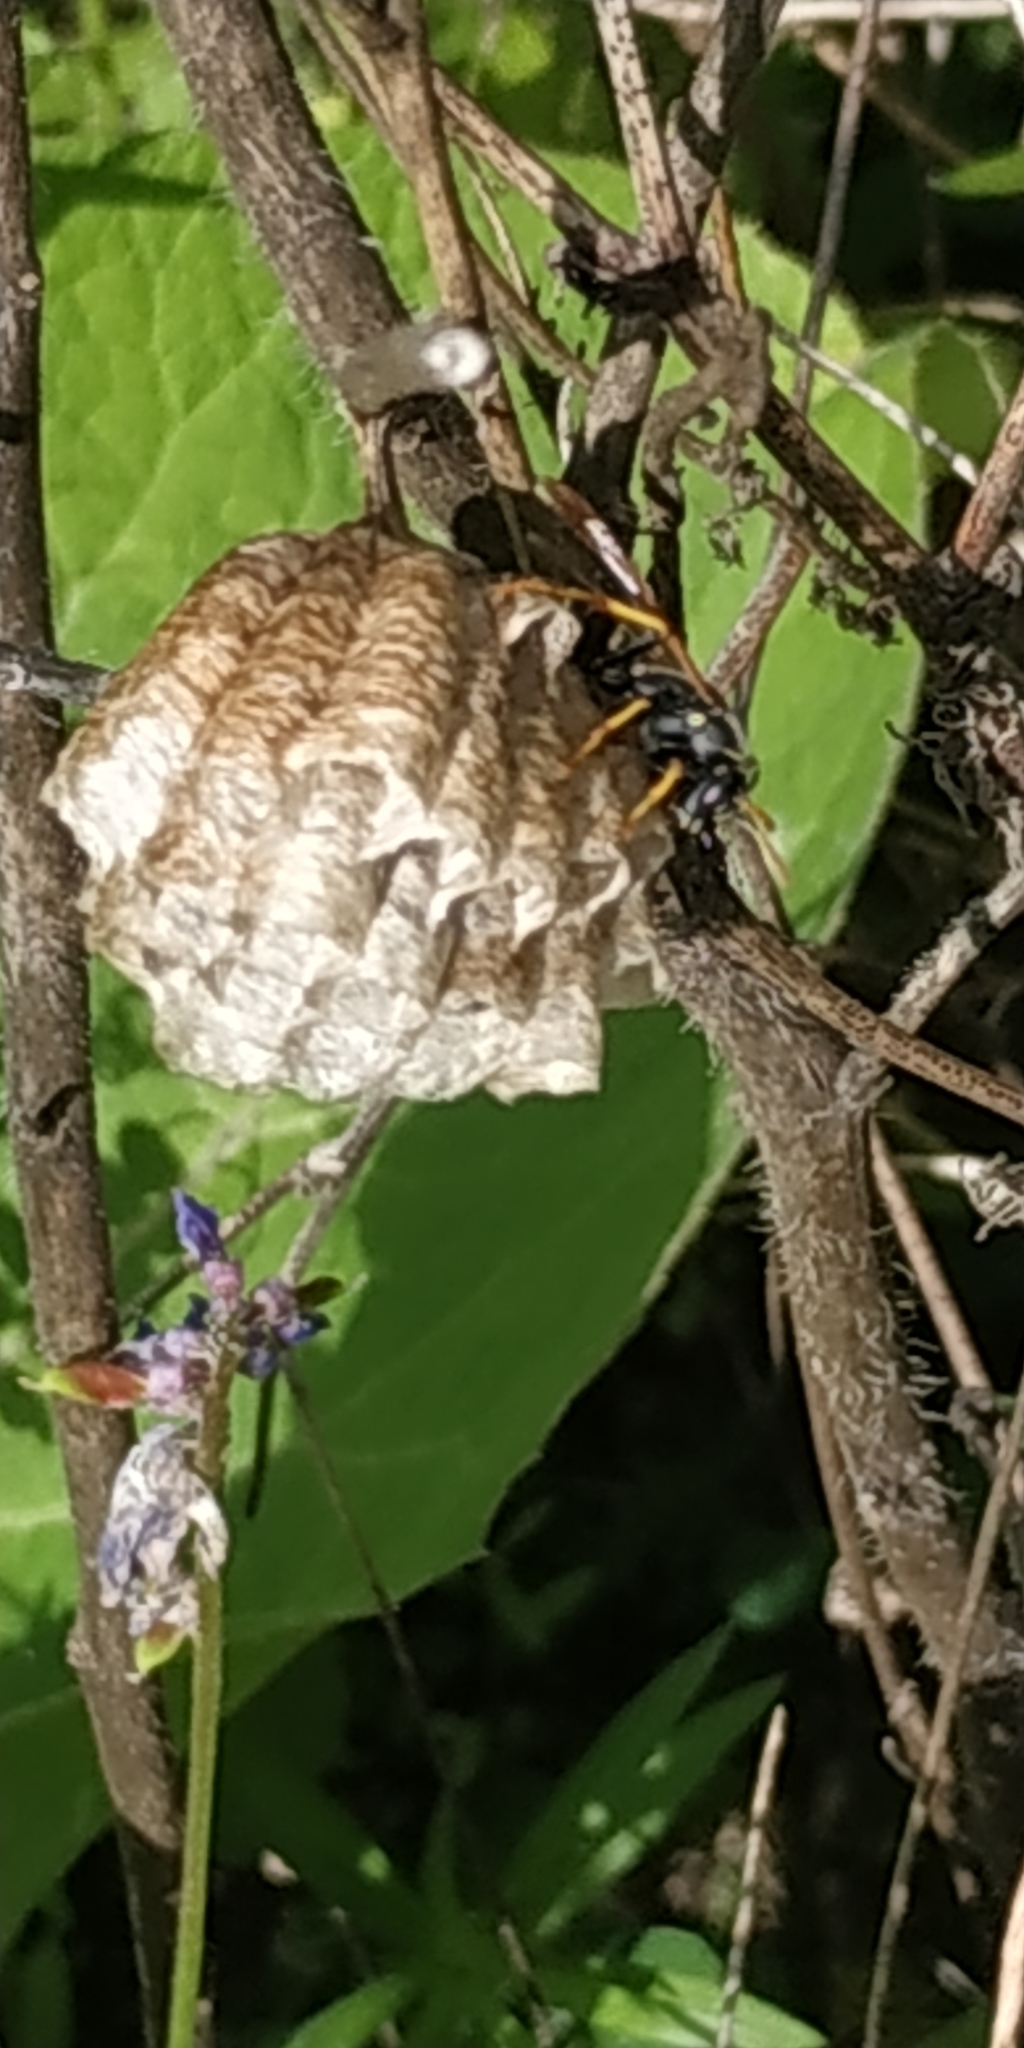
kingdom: Animalia
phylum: Arthropoda
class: Insecta
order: Hymenoptera
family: Eumenidae
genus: Polistes
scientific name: Polistes
